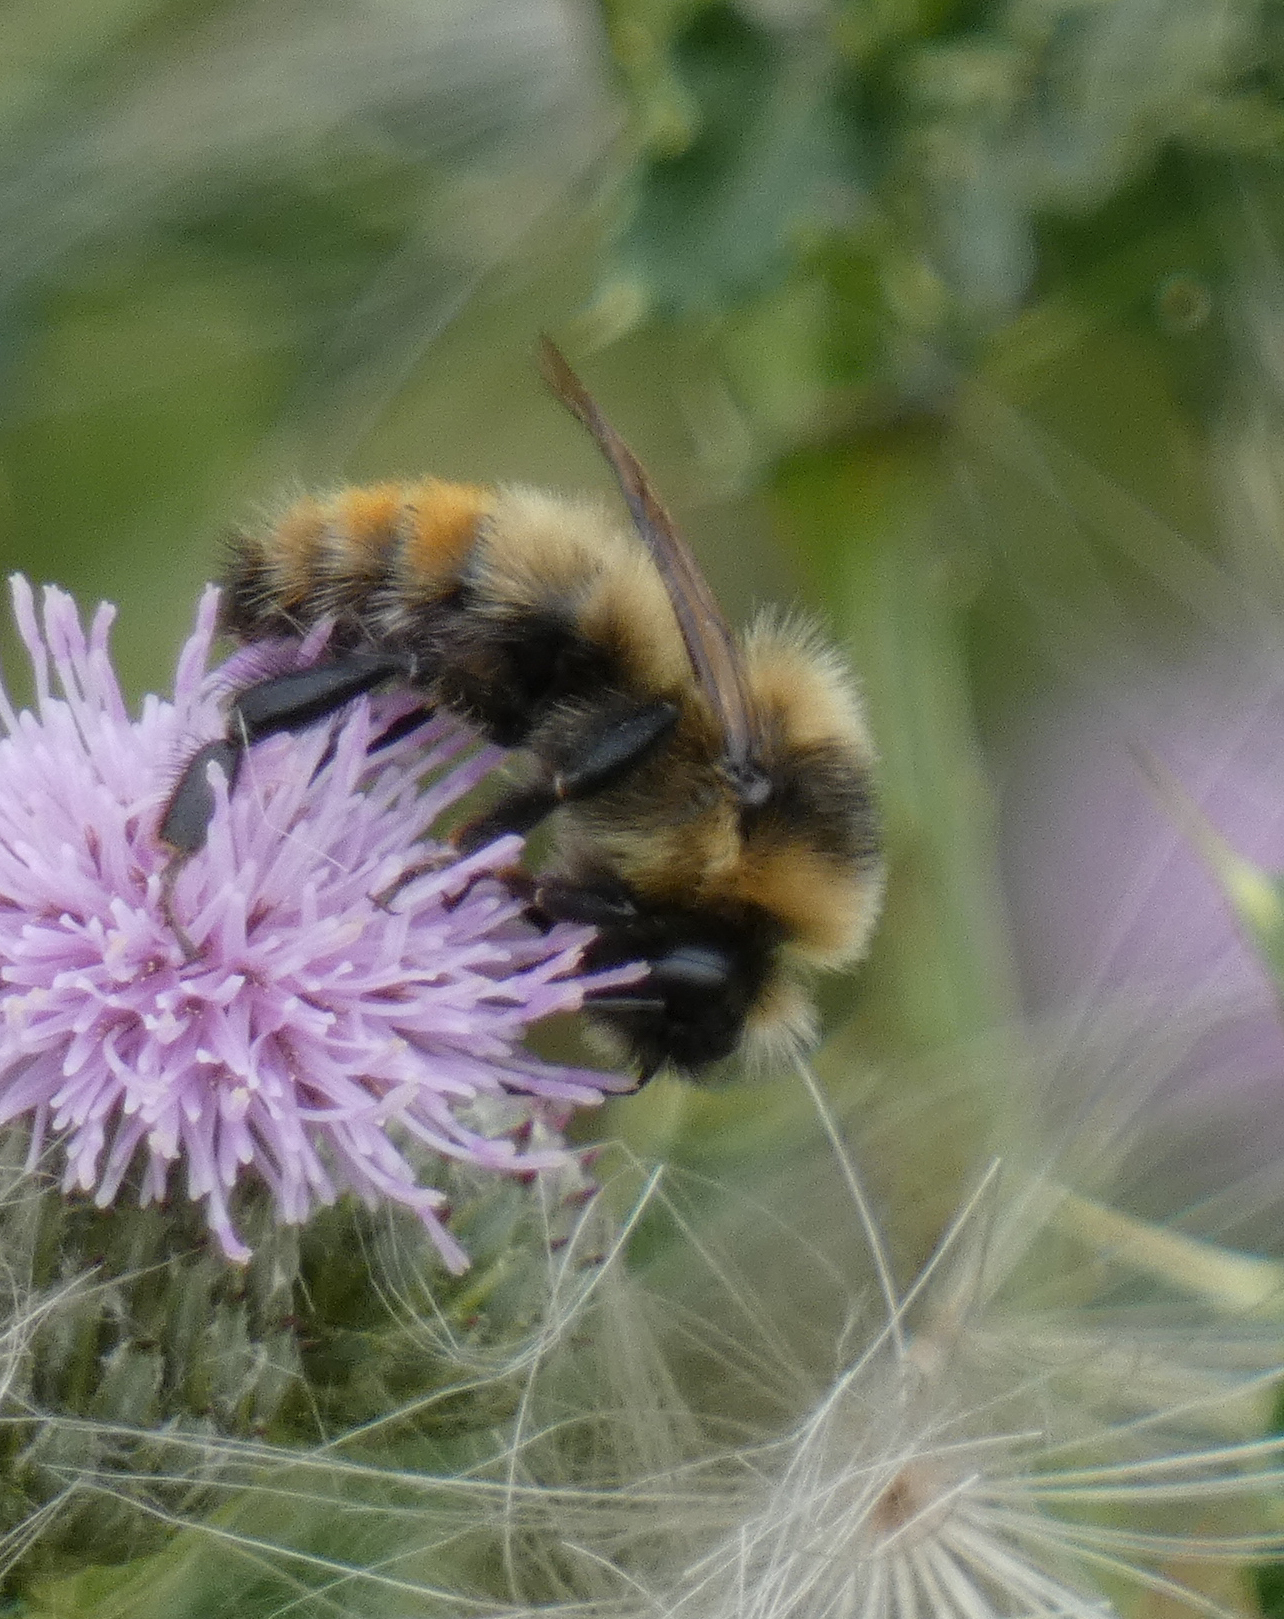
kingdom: Animalia
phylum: Arthropoda
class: Insecta
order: Hymenoptera
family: Apidae
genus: Bombus
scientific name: Bombus rufocinctus
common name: Red-belted bumble bee
